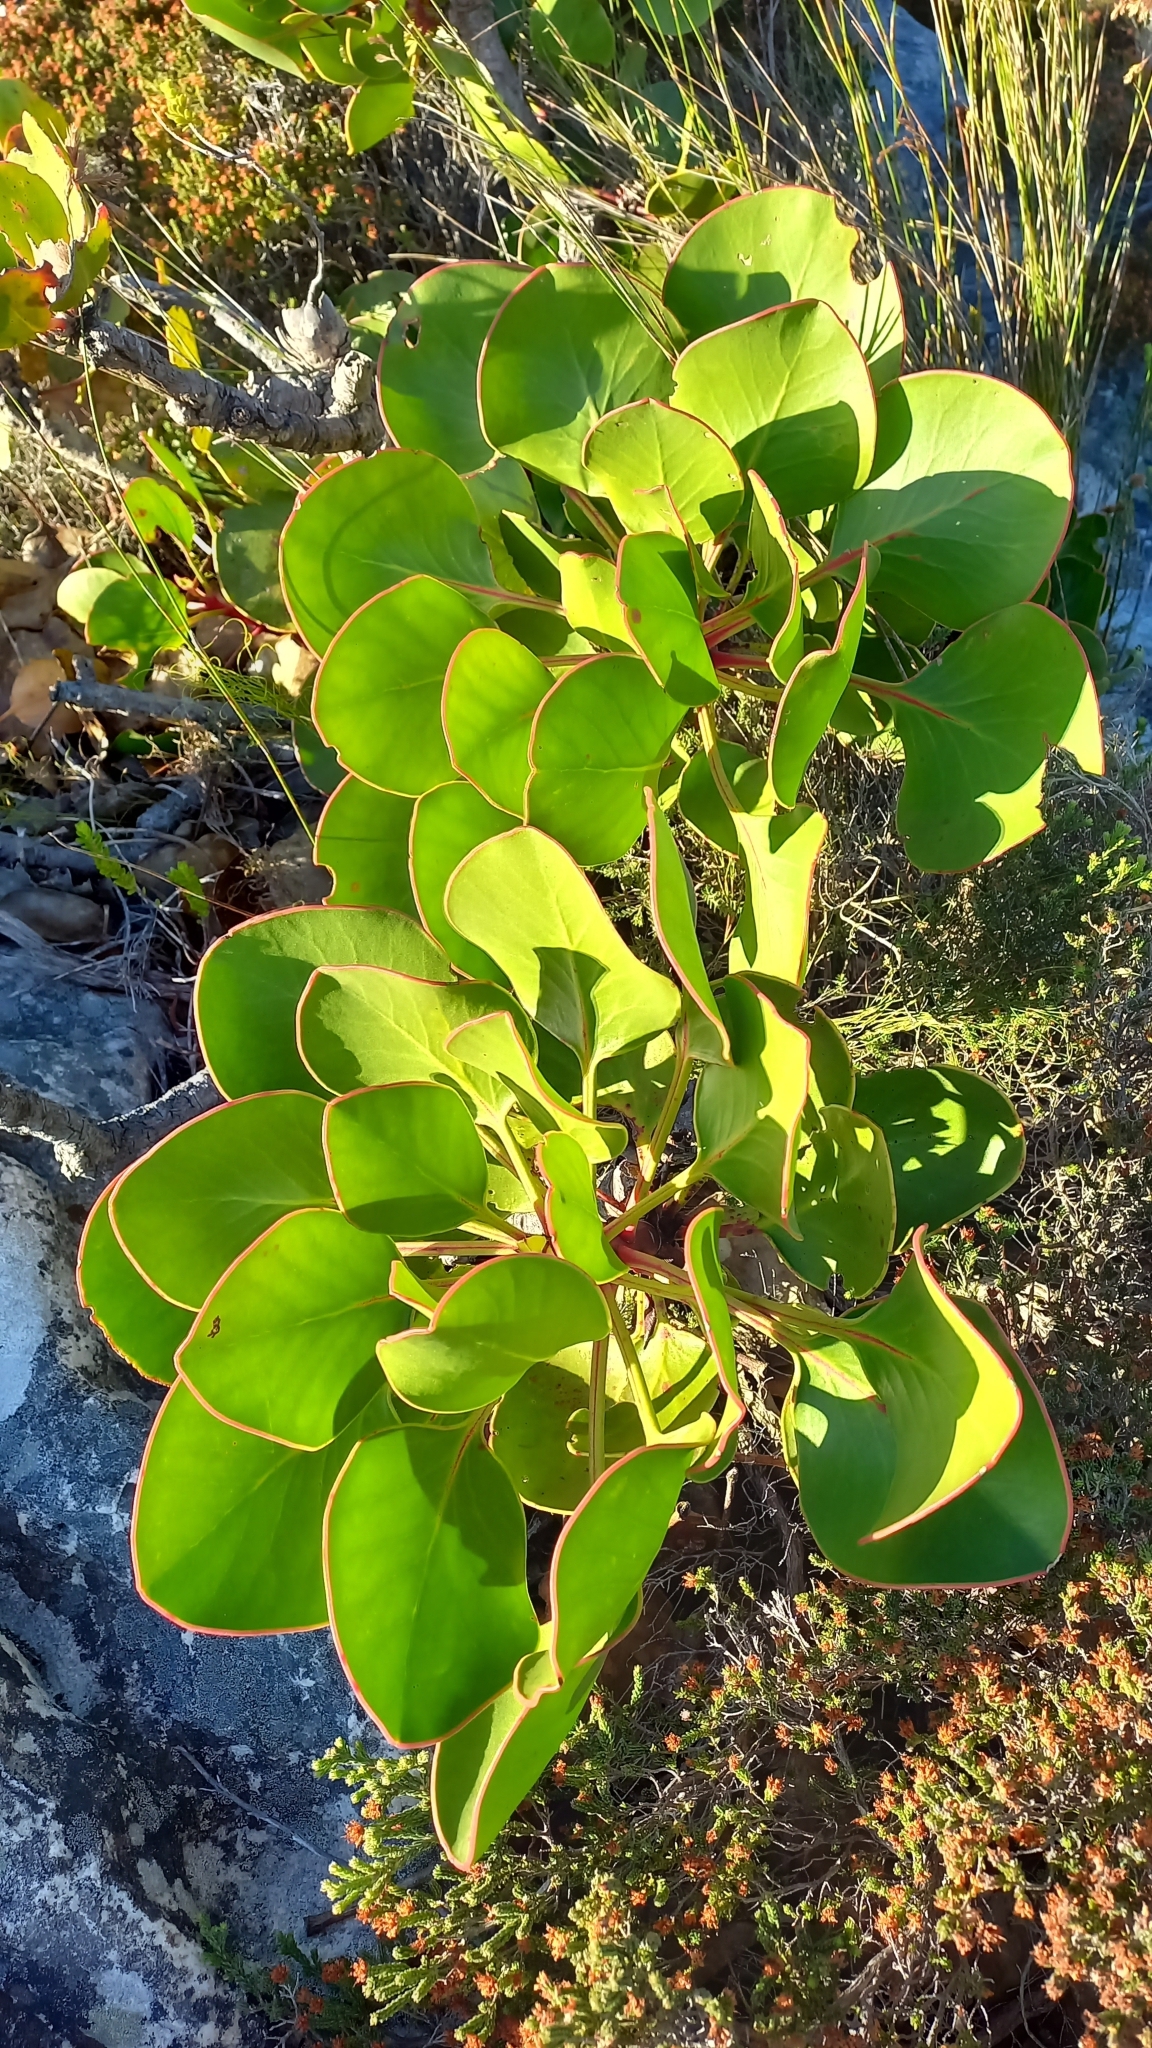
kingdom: Plantae
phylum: Tracheophyta
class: Magnoliopsida
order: Proteales
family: Proteaceae
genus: Protea
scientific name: Protea cynaroides
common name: King protea
